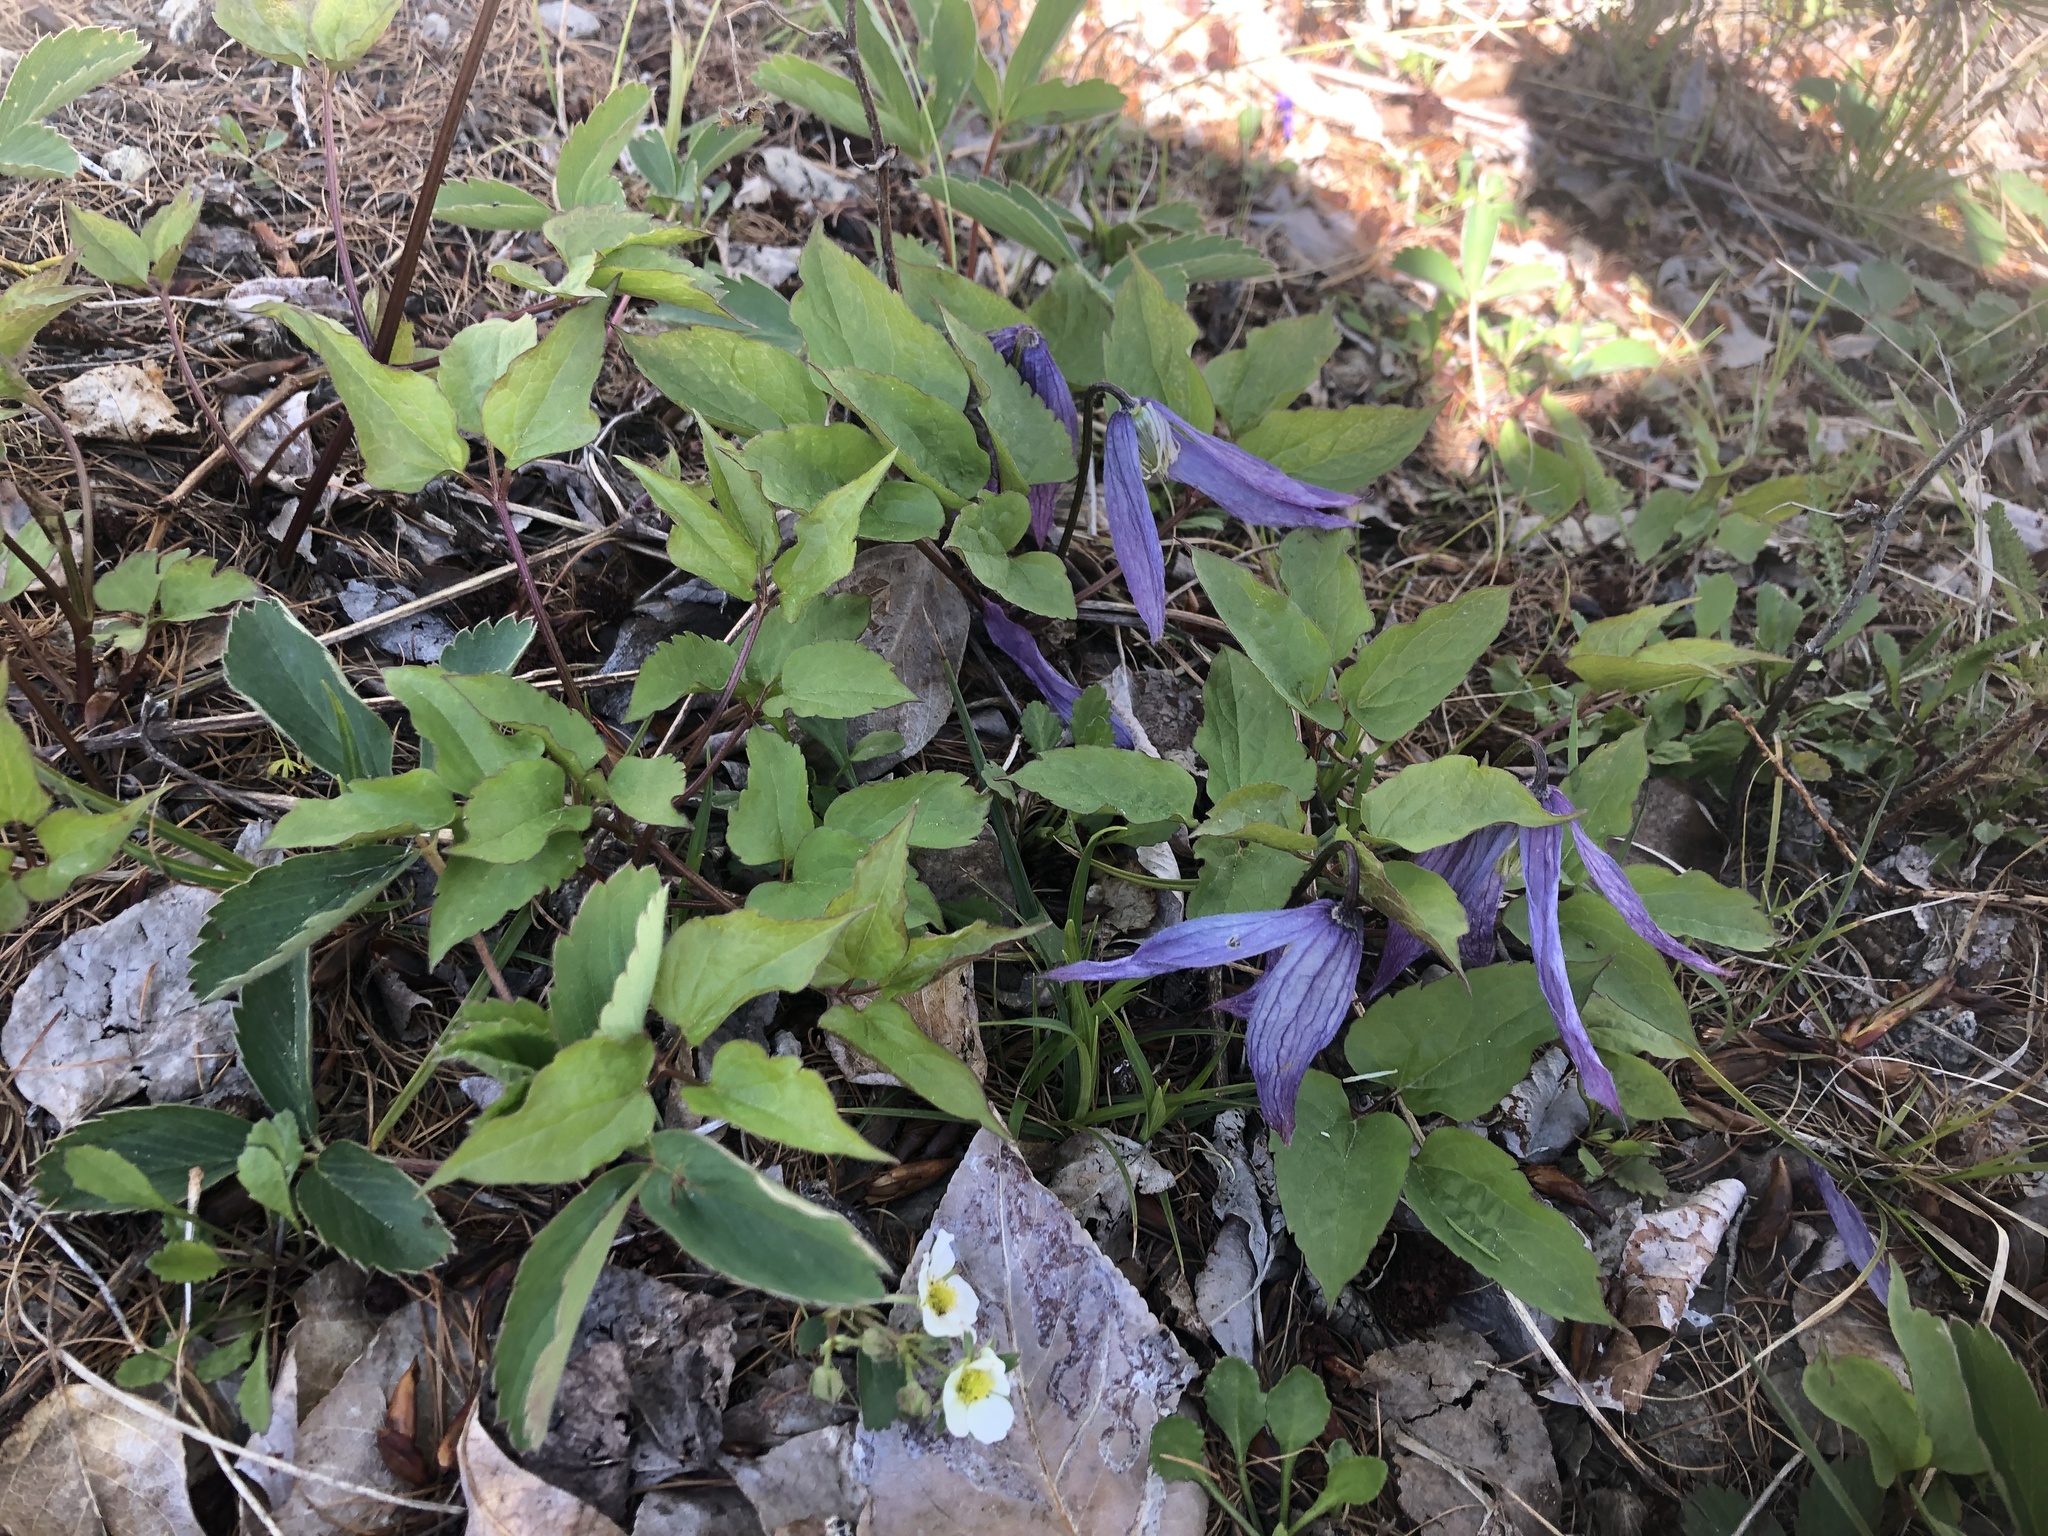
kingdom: Plantae
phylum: Tracheophyta
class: Magnoliopsida
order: Ranunculales
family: Ranunculaceae
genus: Clematis
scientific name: Clematis occidentalis
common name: Purple clematis
